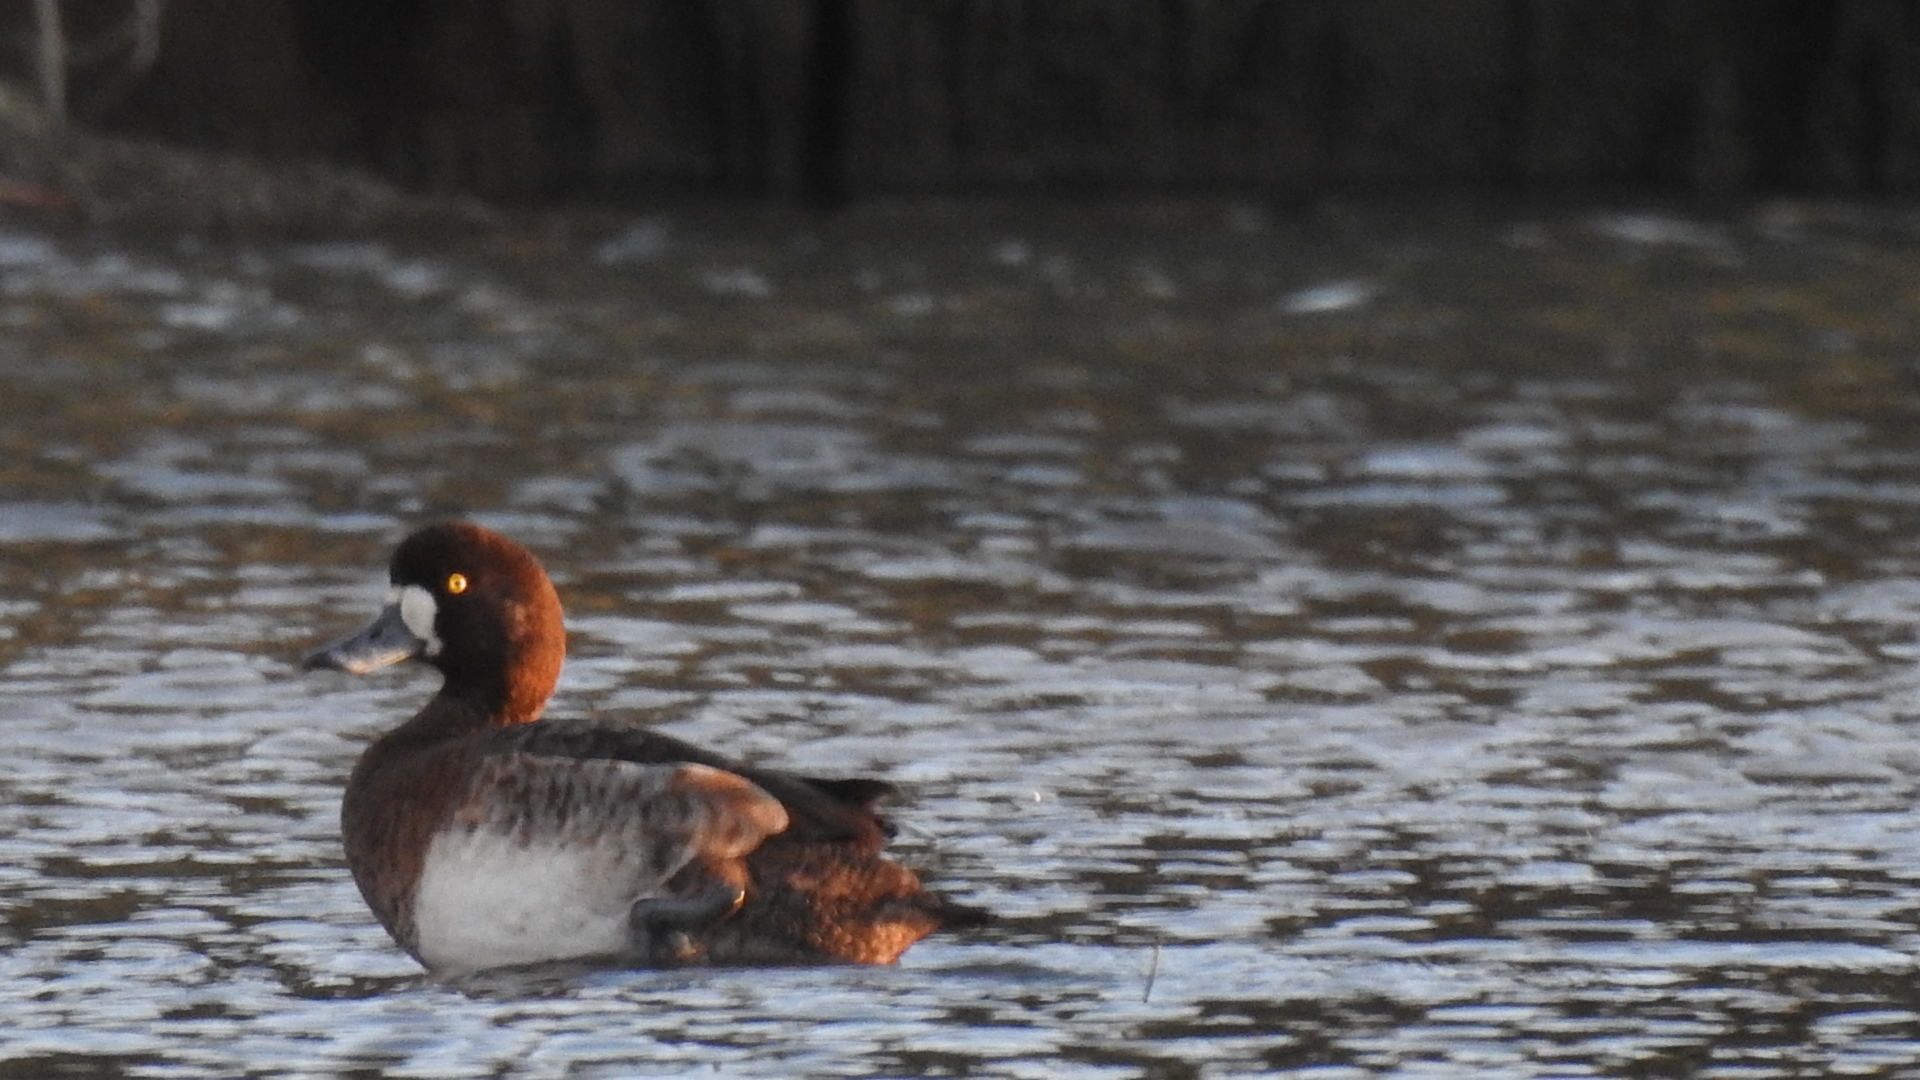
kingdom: Animalia
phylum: Chordata
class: Aves
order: Anseriformes
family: Anatidae
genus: Aythya
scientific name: Aythya marila
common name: Greater scaup
